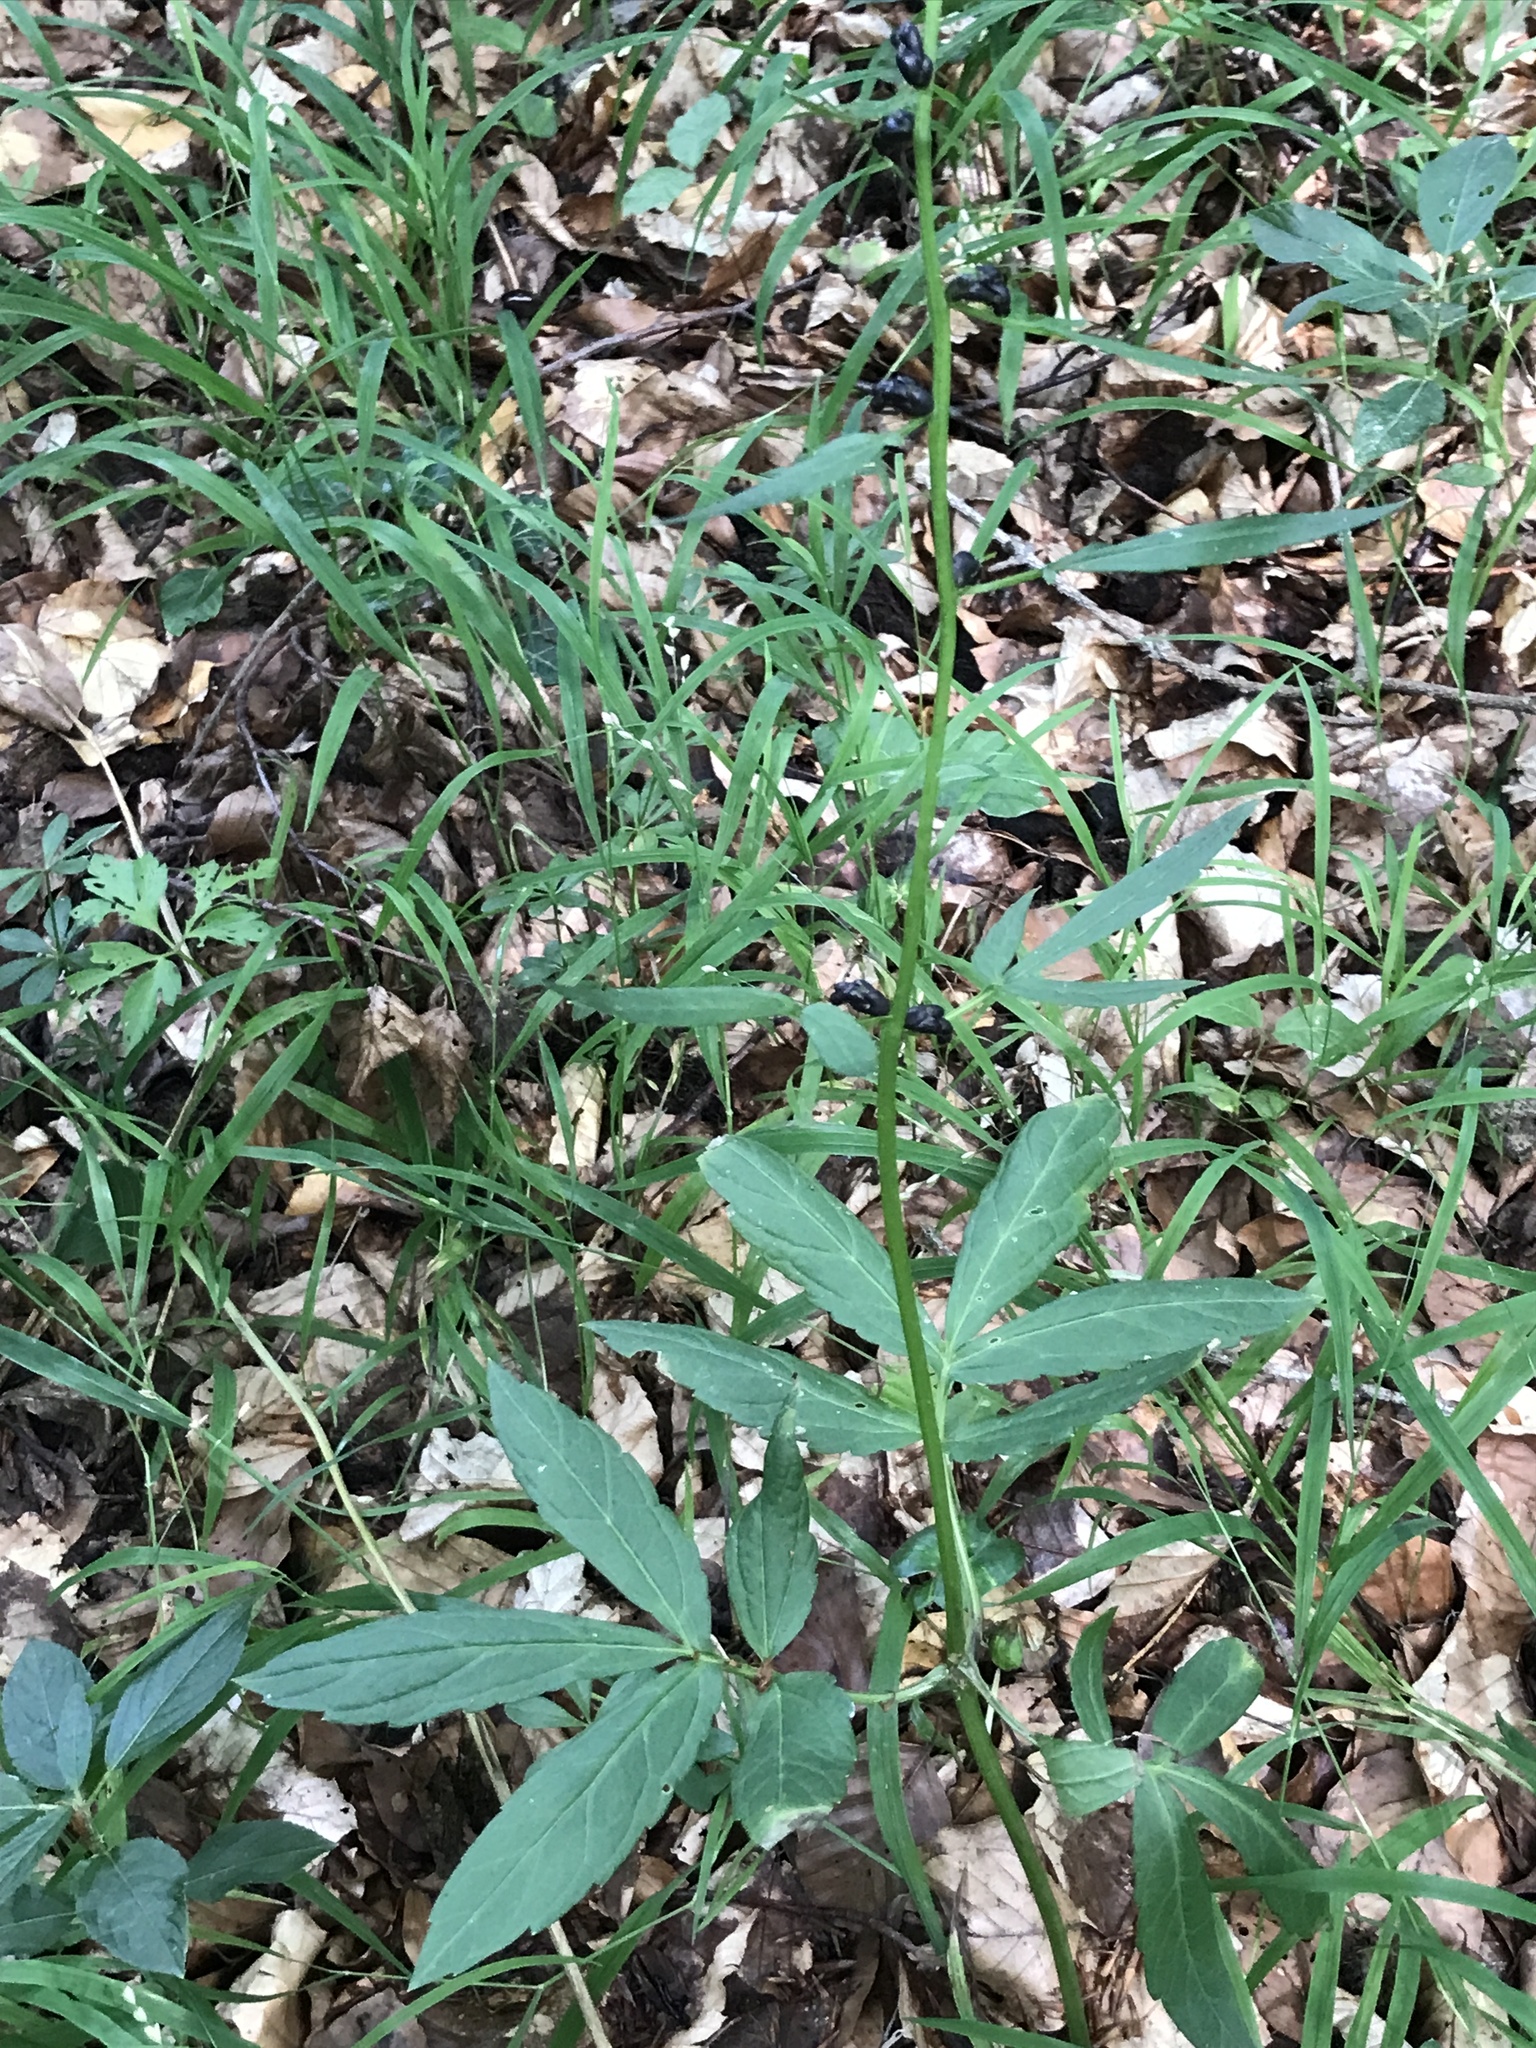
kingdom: Plantae
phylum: Tracheophyta
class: Magnoliopsida
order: Brassicales
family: Brassicaceae
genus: Cardamine
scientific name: Cardamine bulbifera
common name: Coralroot bittercress
